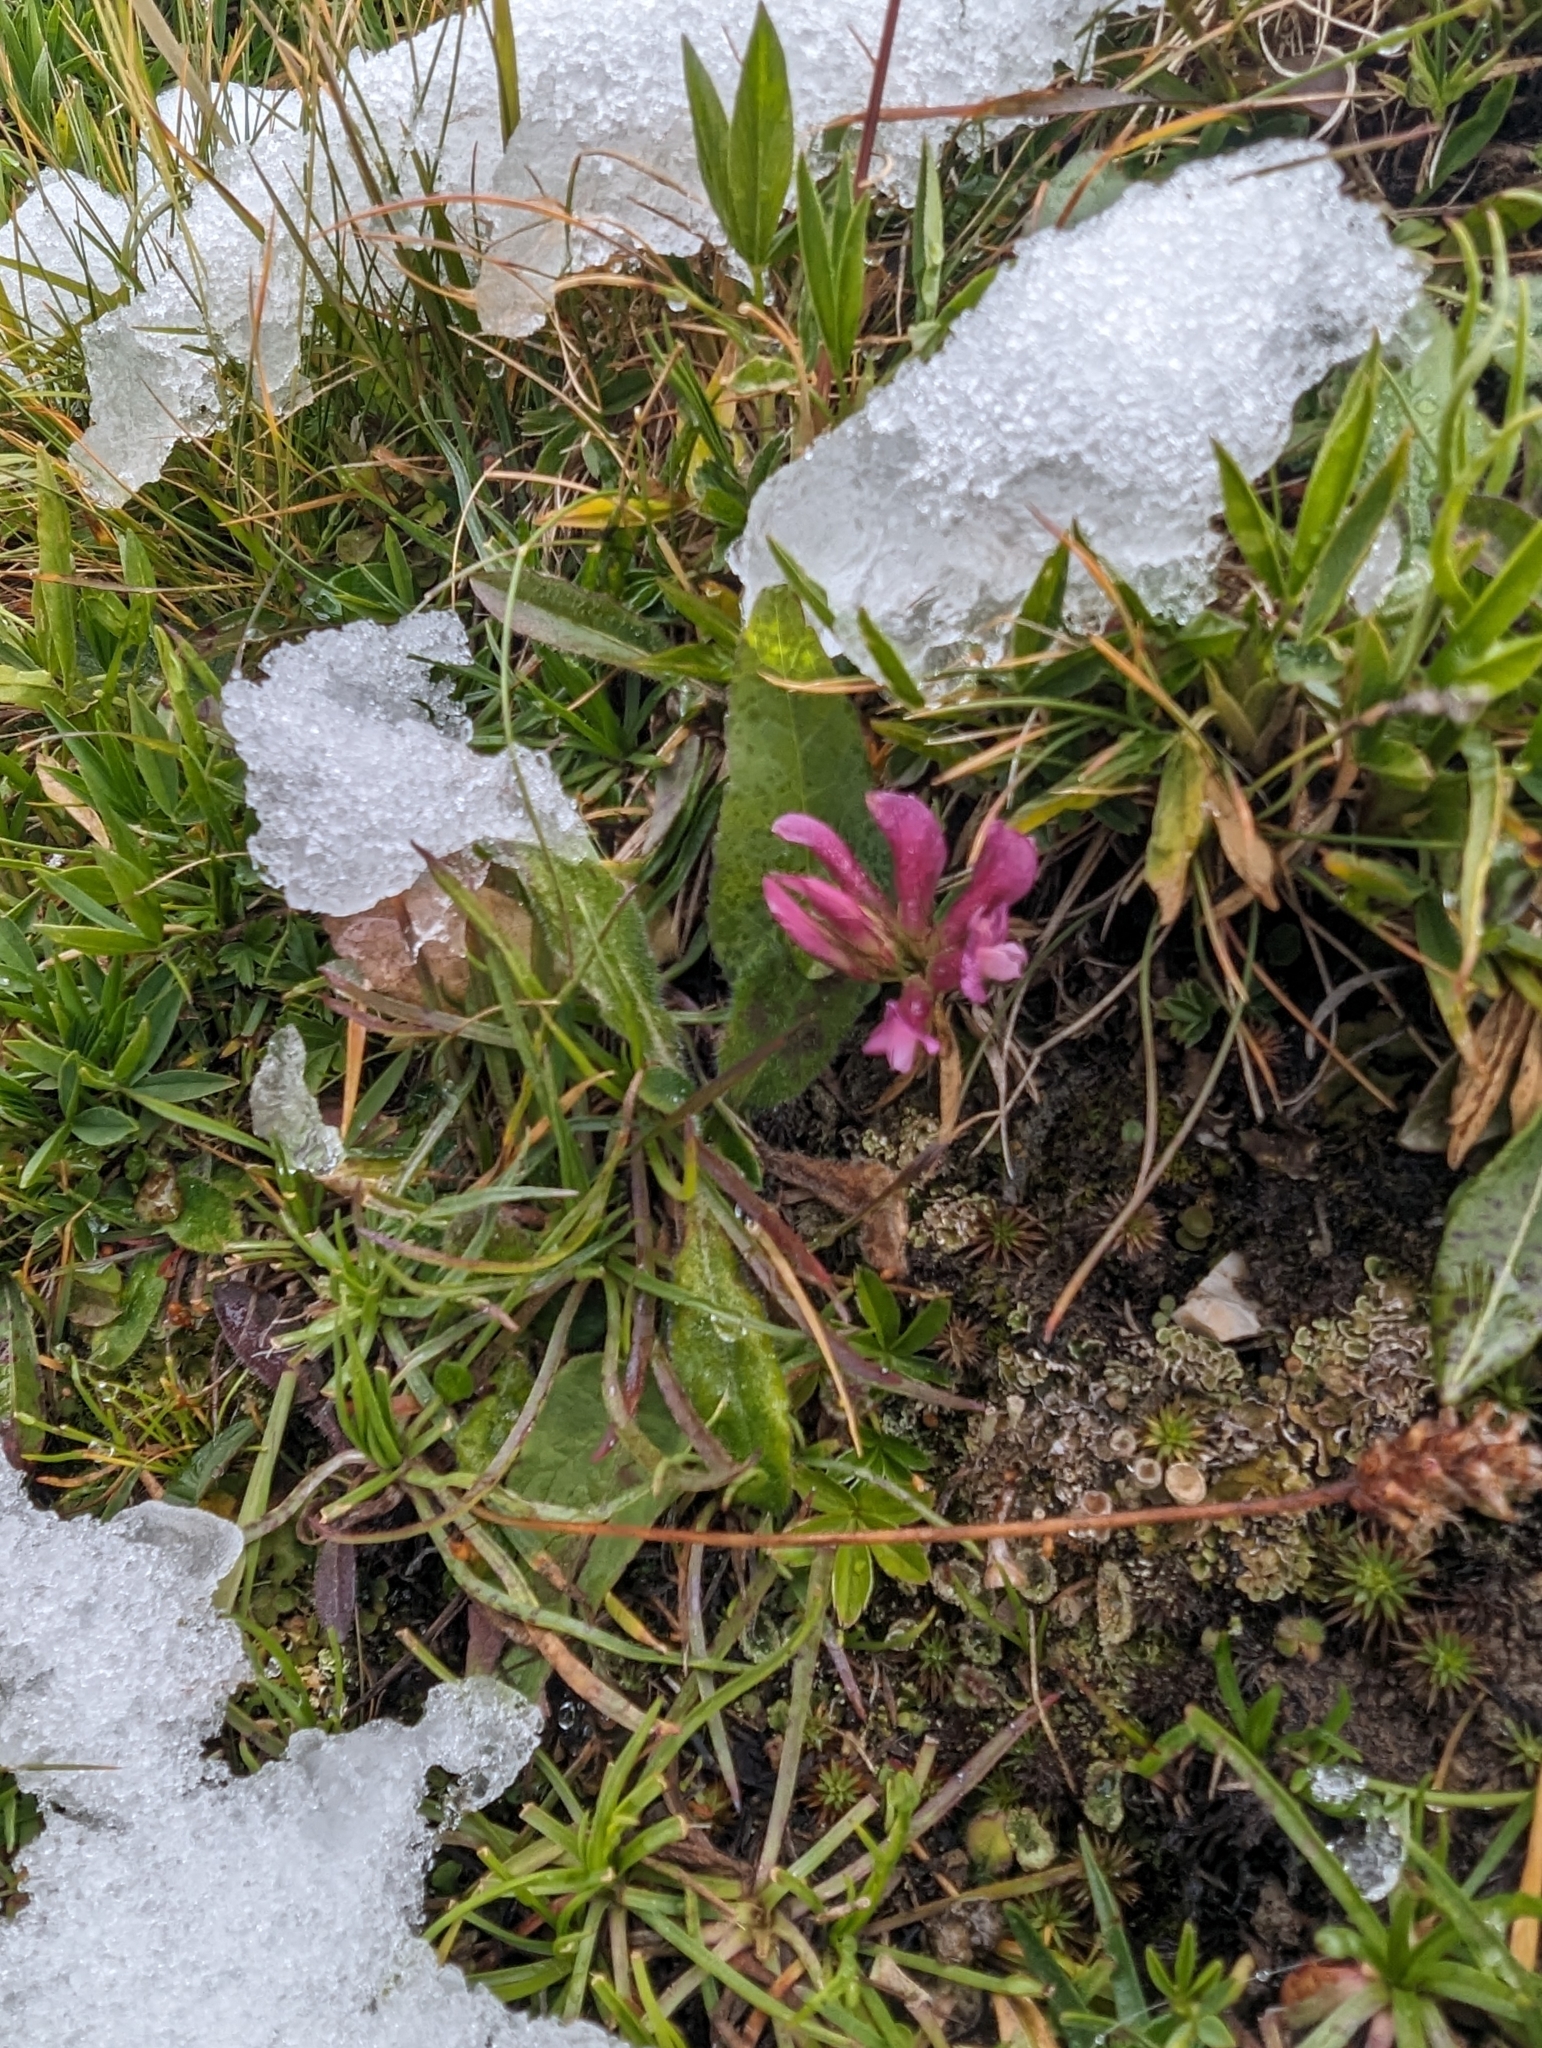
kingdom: Plantae
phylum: Tracheophyta
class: Magnoliopsida
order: Fabales
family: Fabaceae
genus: Trifolium
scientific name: Trifolium alpinum
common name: Alpine clover
